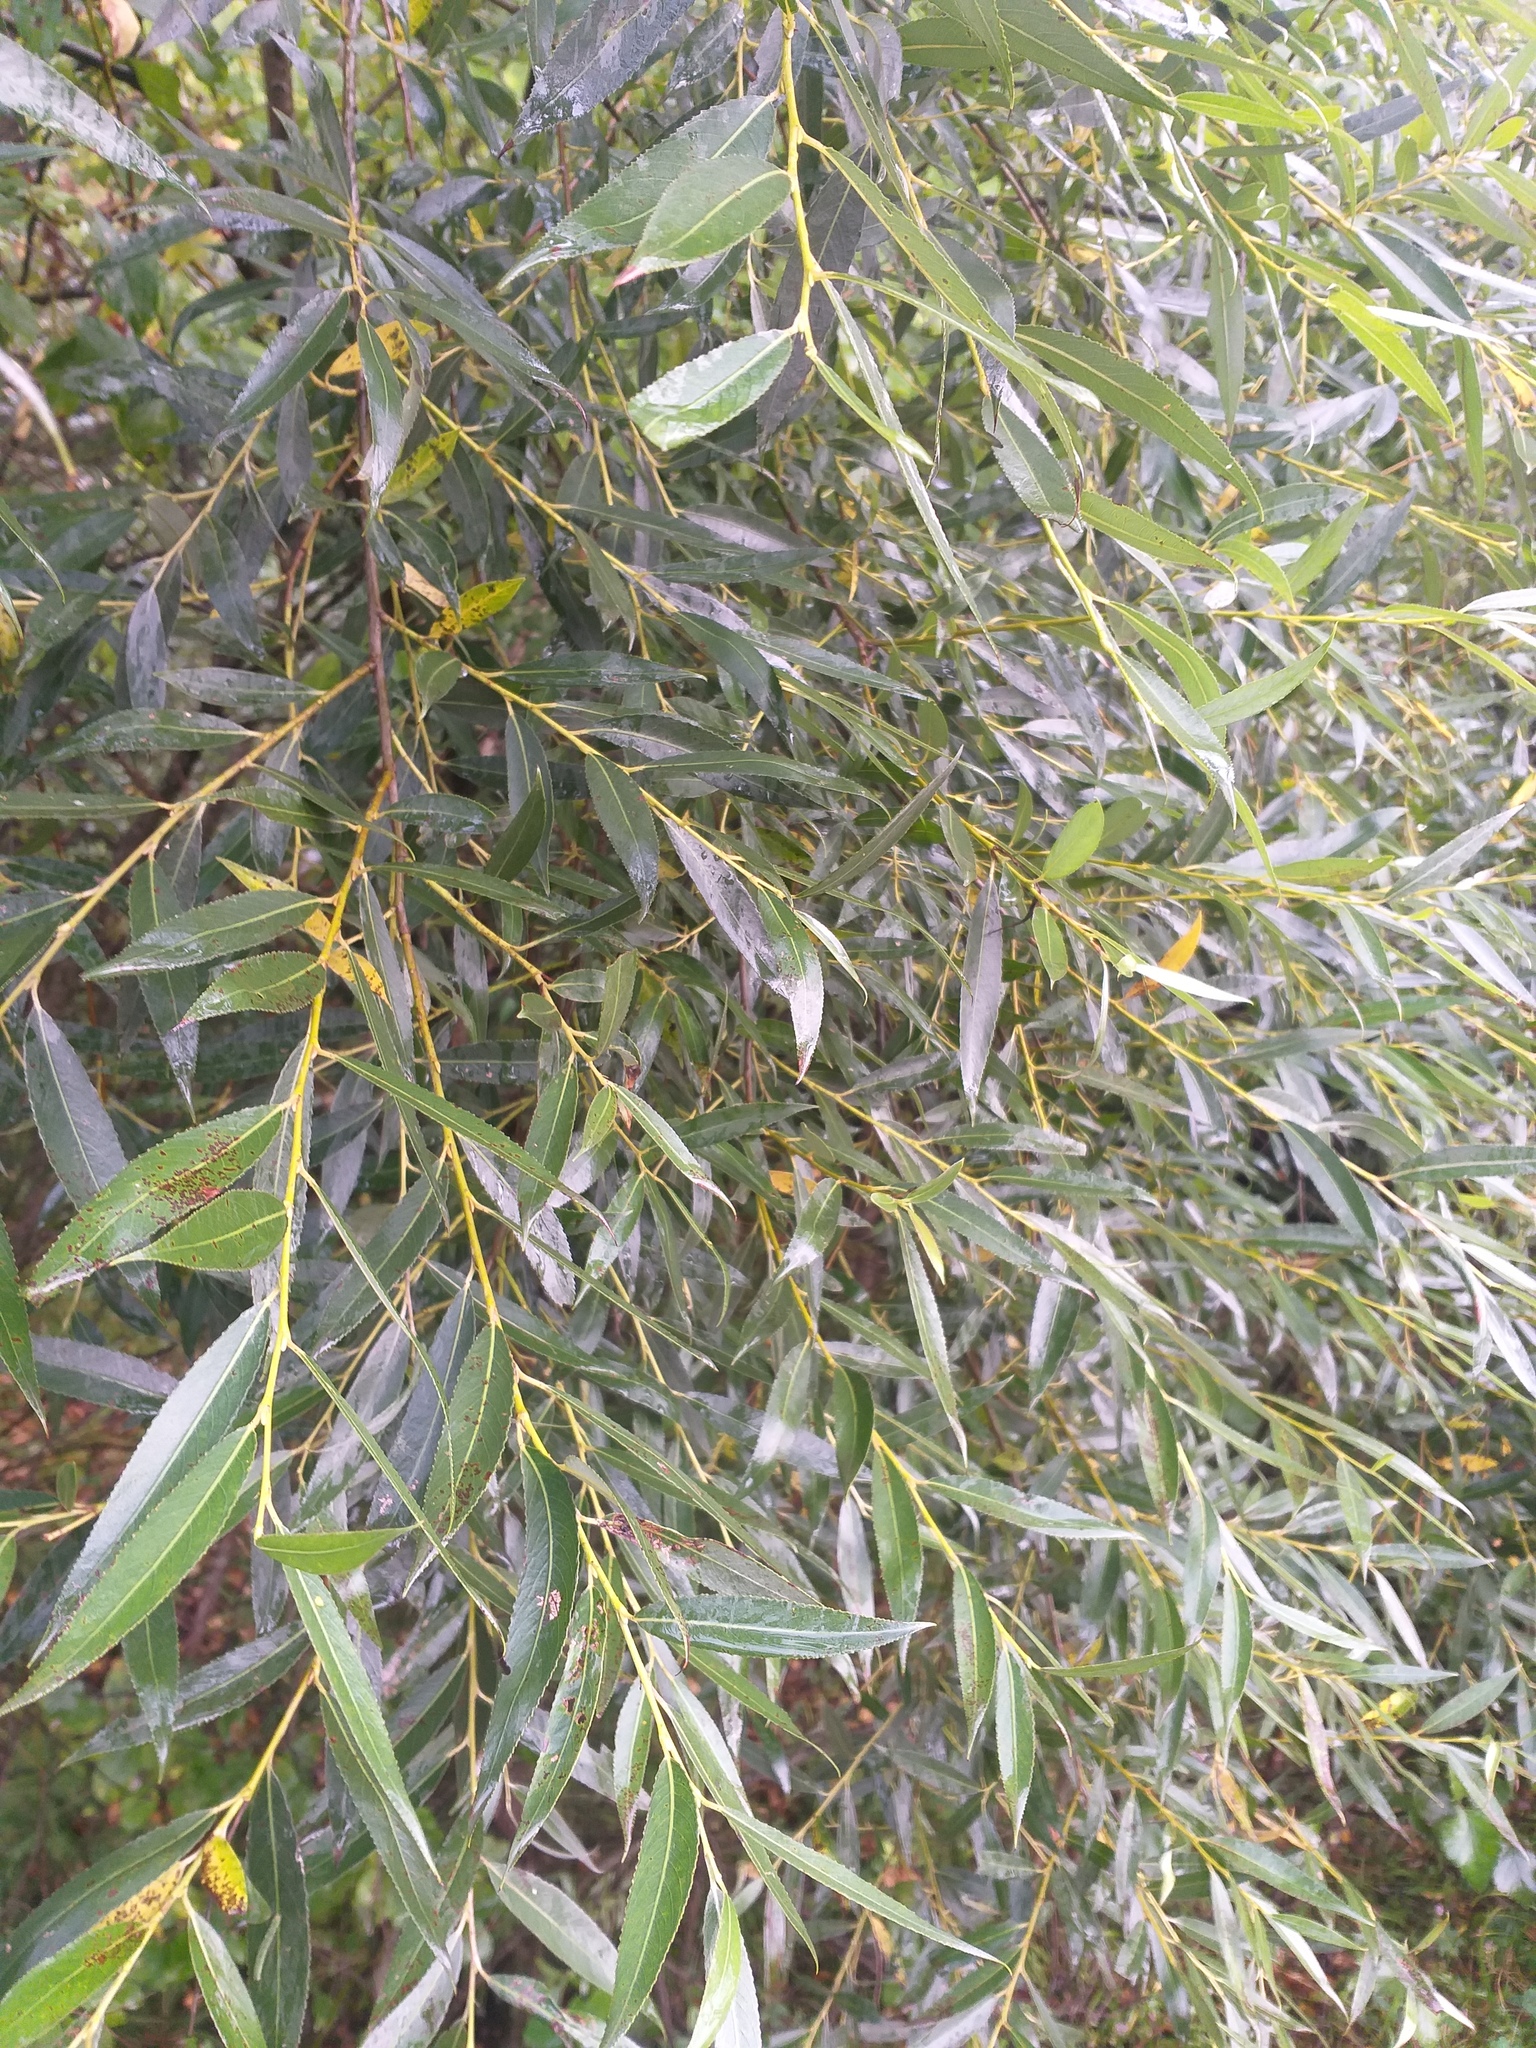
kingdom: Plantae
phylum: Tracheophyta
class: Magnoliopsida
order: Malpighiales
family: Salicaceae
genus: Salix
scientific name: Salix fragilis
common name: Crack willow
